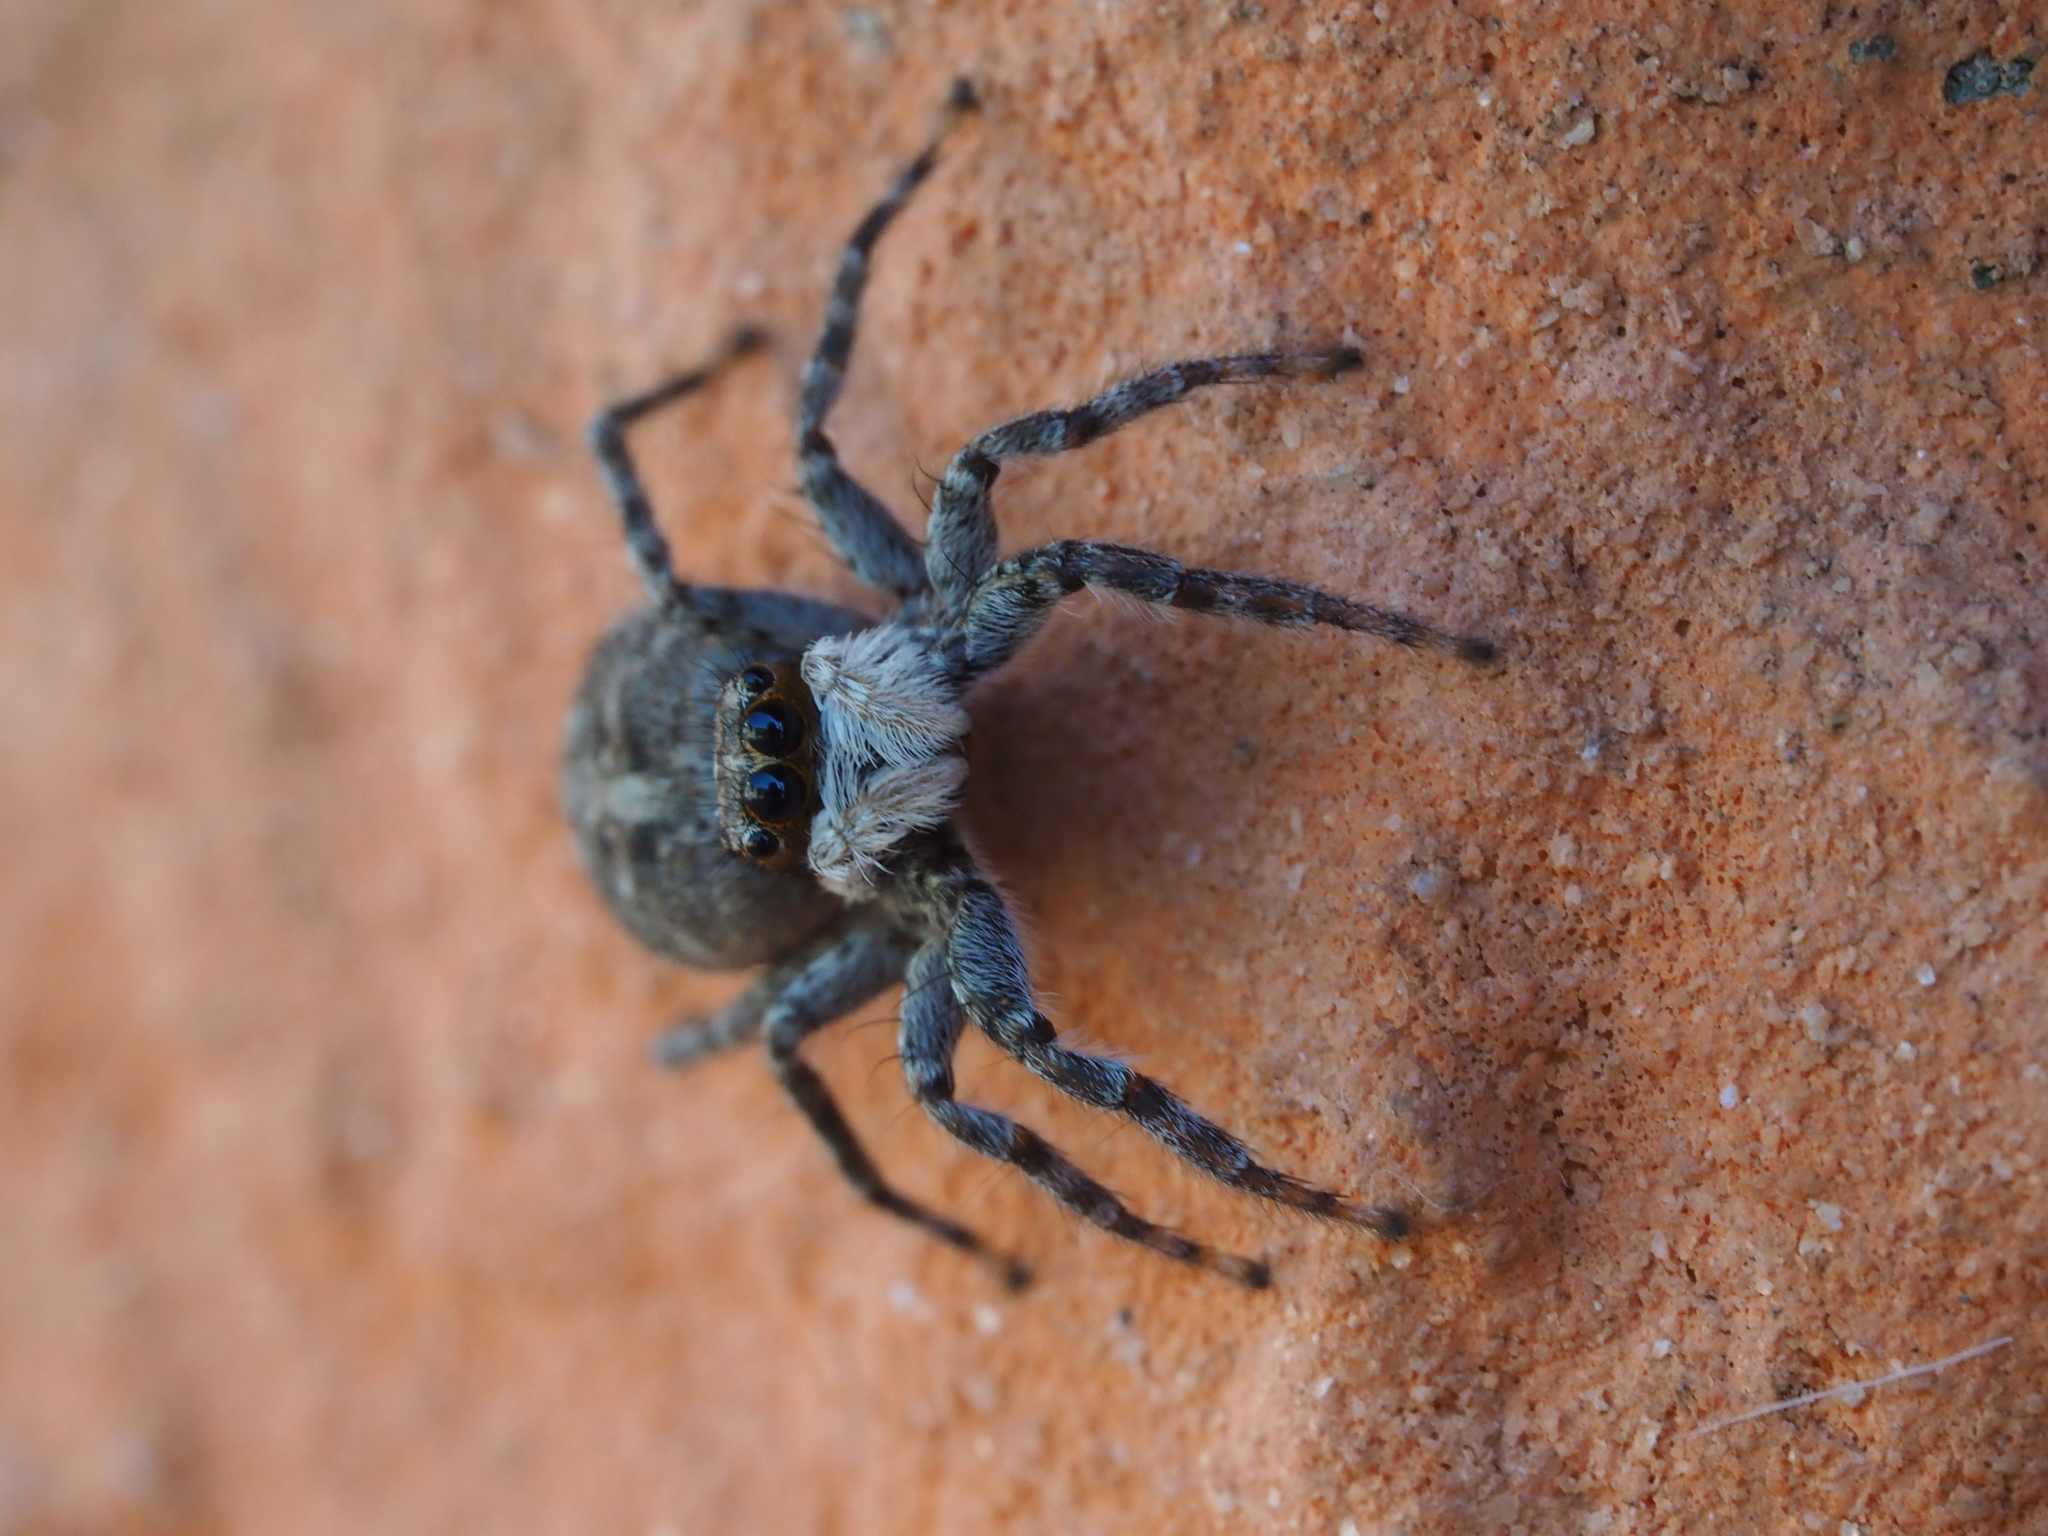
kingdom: Animalia
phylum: Arthropoda
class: Arachnida
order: Araneae
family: Salticidae
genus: Menemerus
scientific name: Menemerus semilimbatus
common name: Jumping spider
